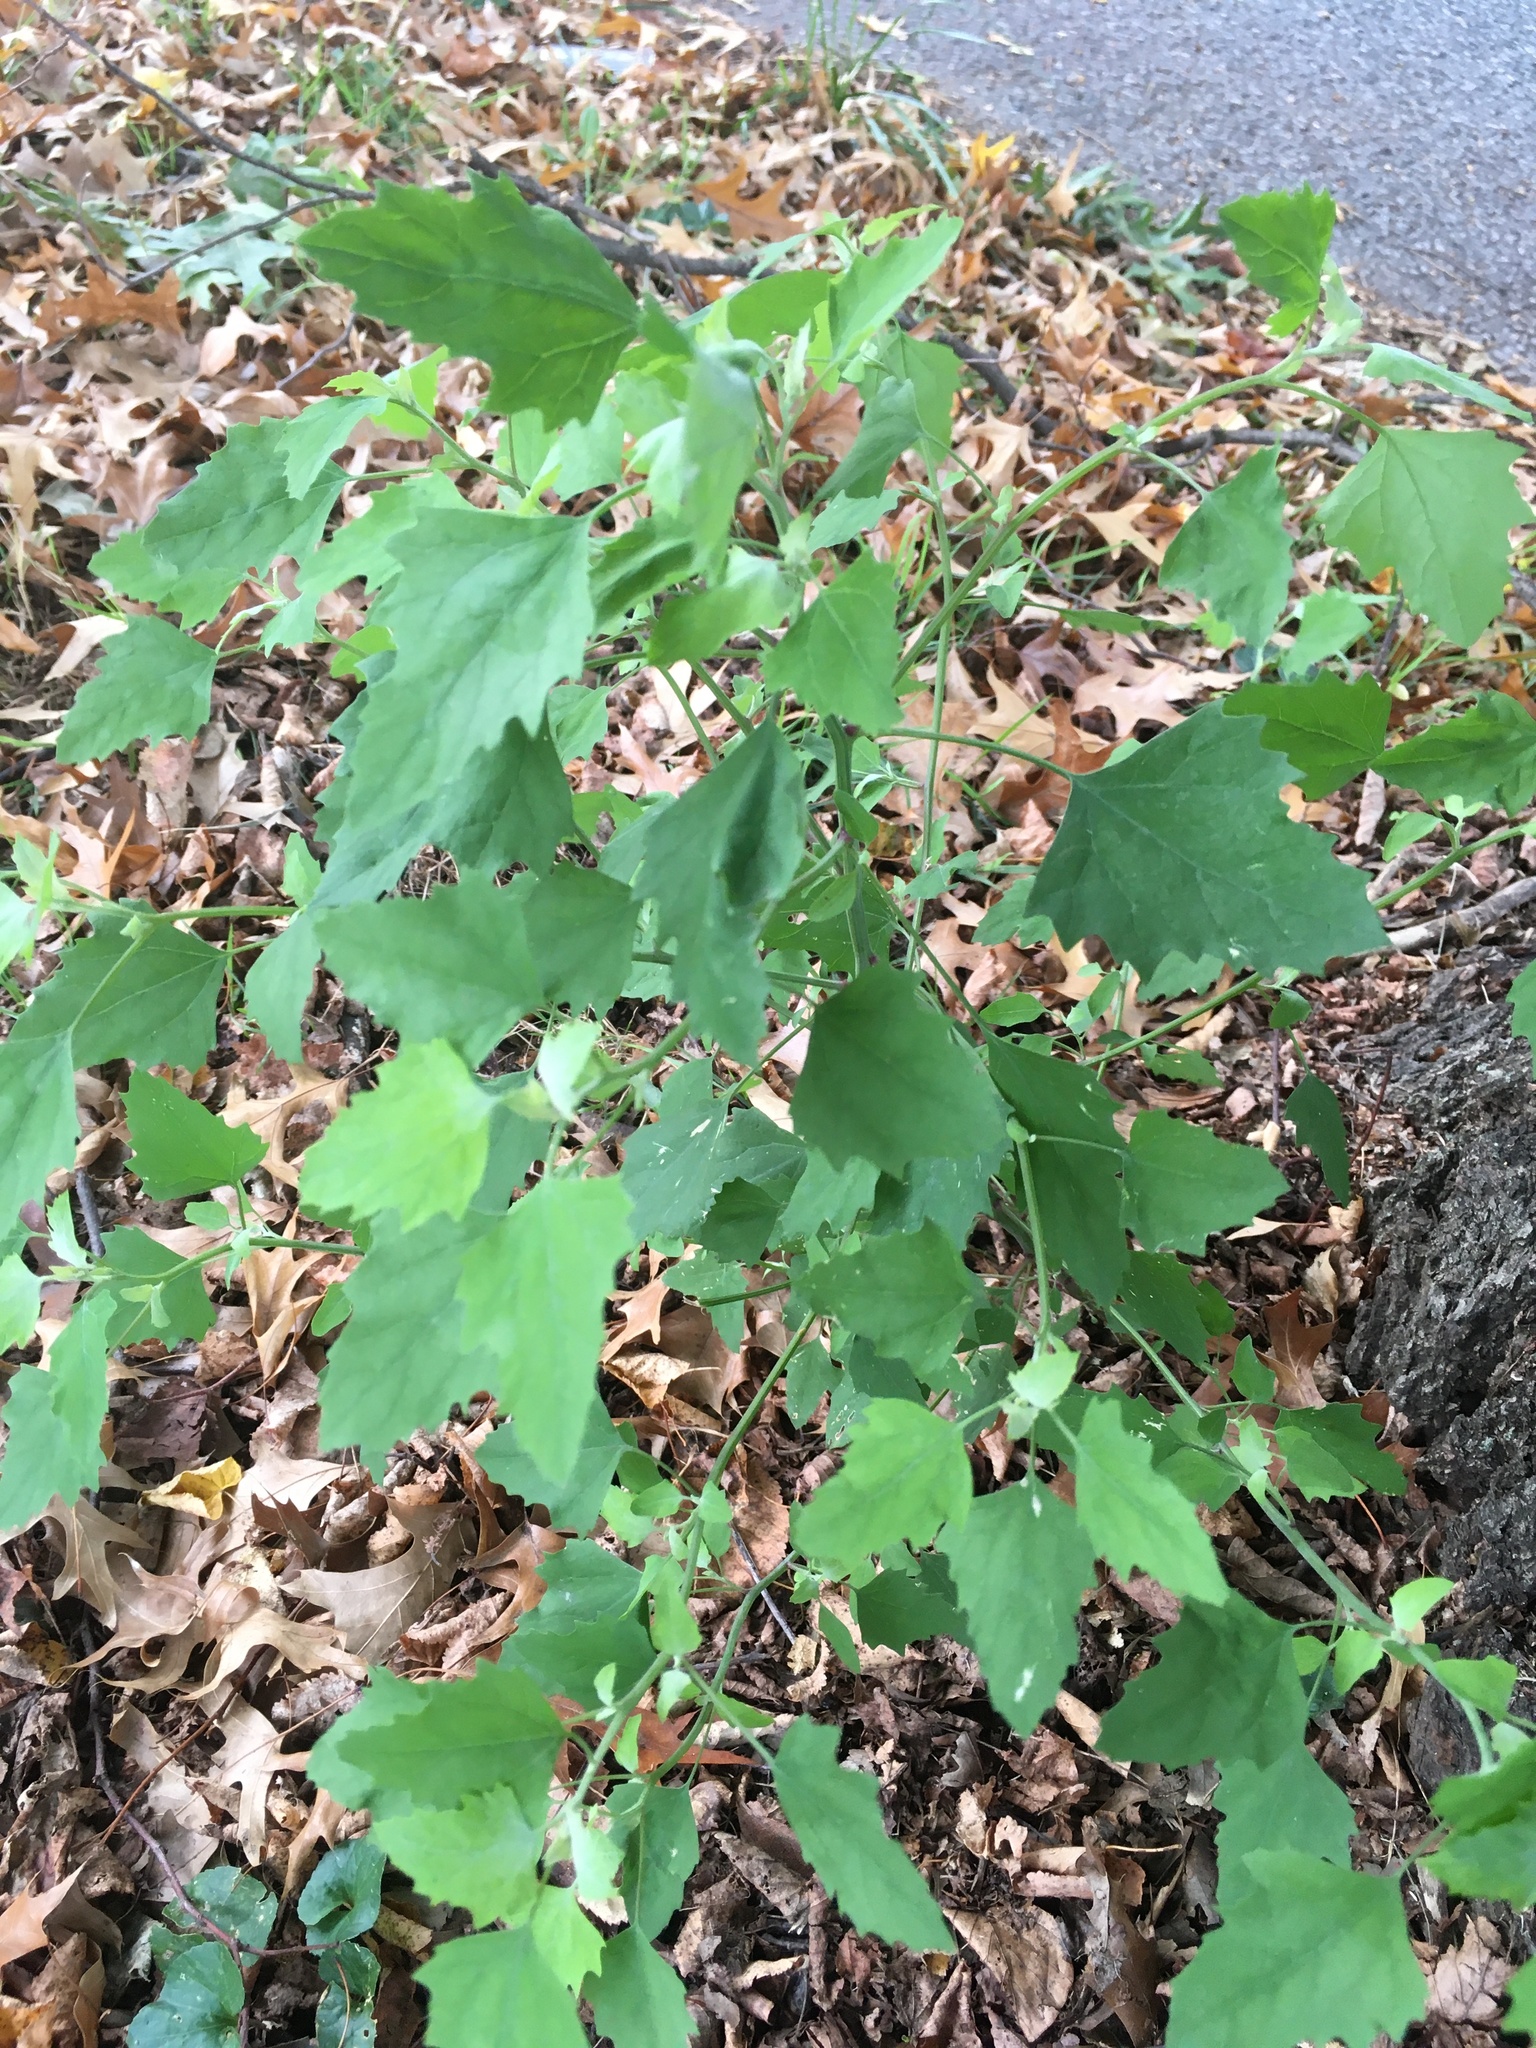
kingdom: Plantae
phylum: Tracheophyta
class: Magnoliopsida
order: Caryophyllales
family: Amaranthaceae
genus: Chenopodium
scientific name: Chenopodium album
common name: Fat-hen
